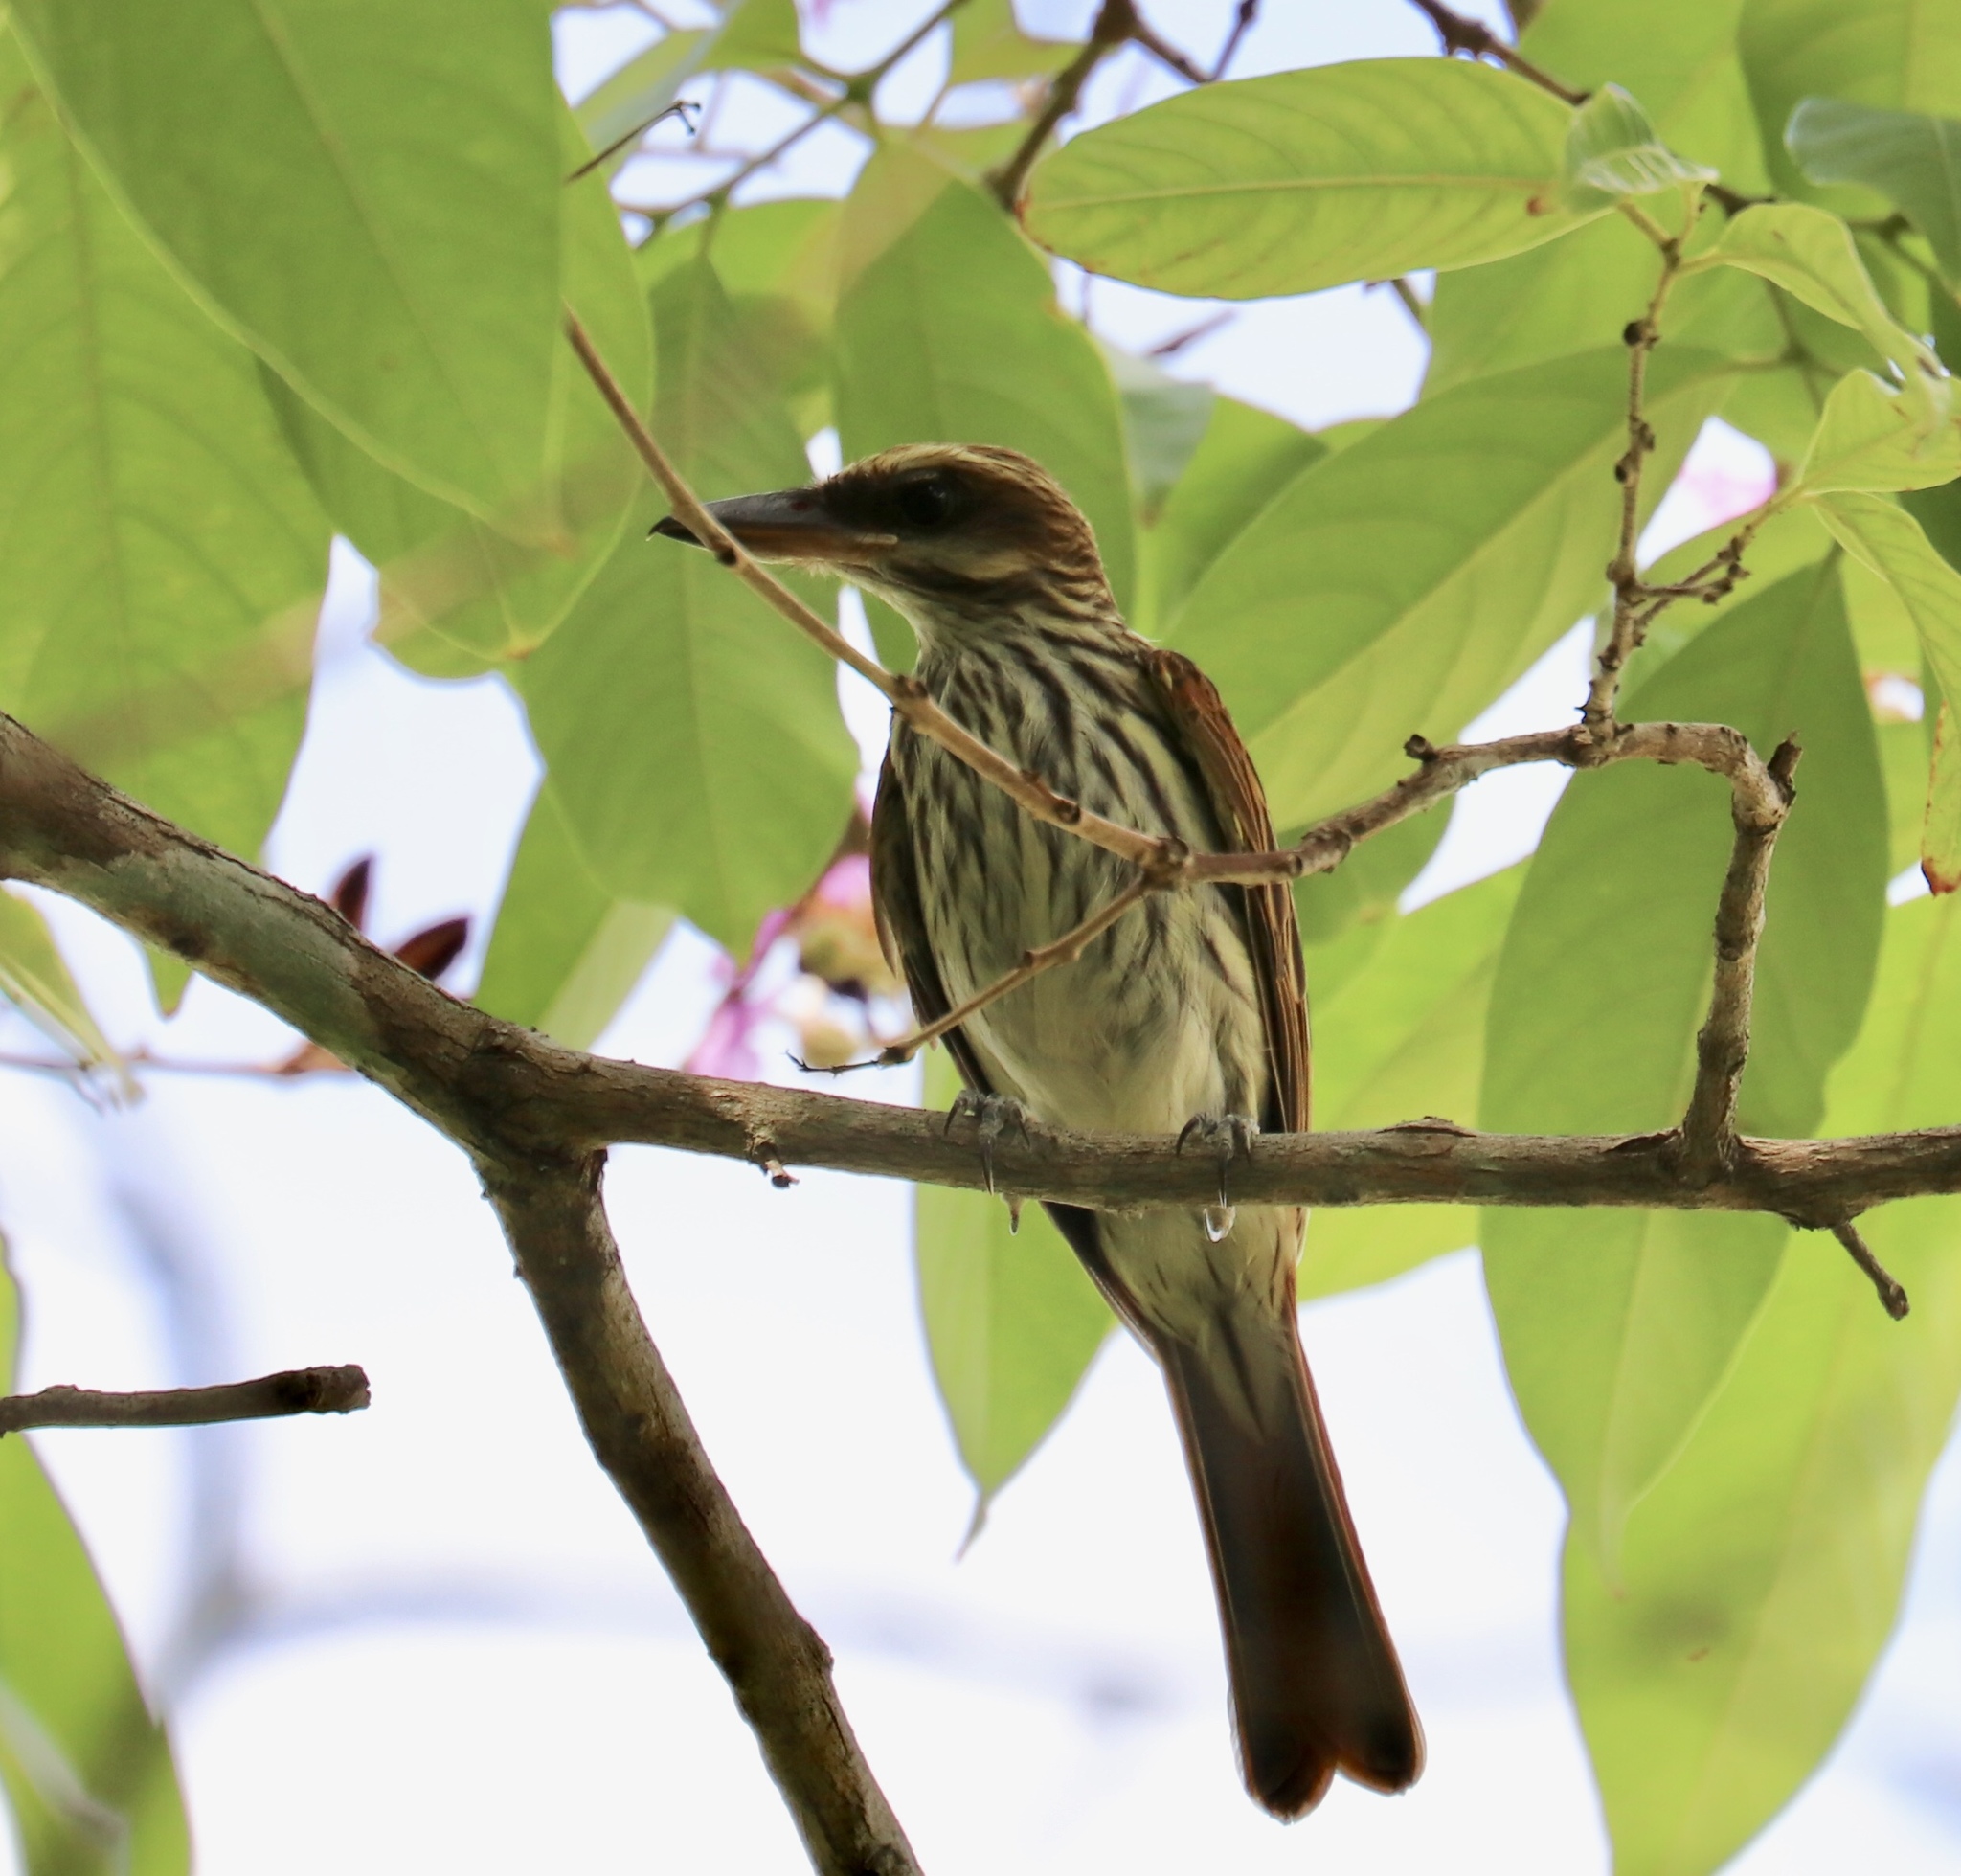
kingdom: Animalia
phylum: Chordata
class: Aves
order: Passeriformes
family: Tyrannidae
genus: Myiodynastes
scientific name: Myiodynastes maculatus
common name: Streaked flycatcher
